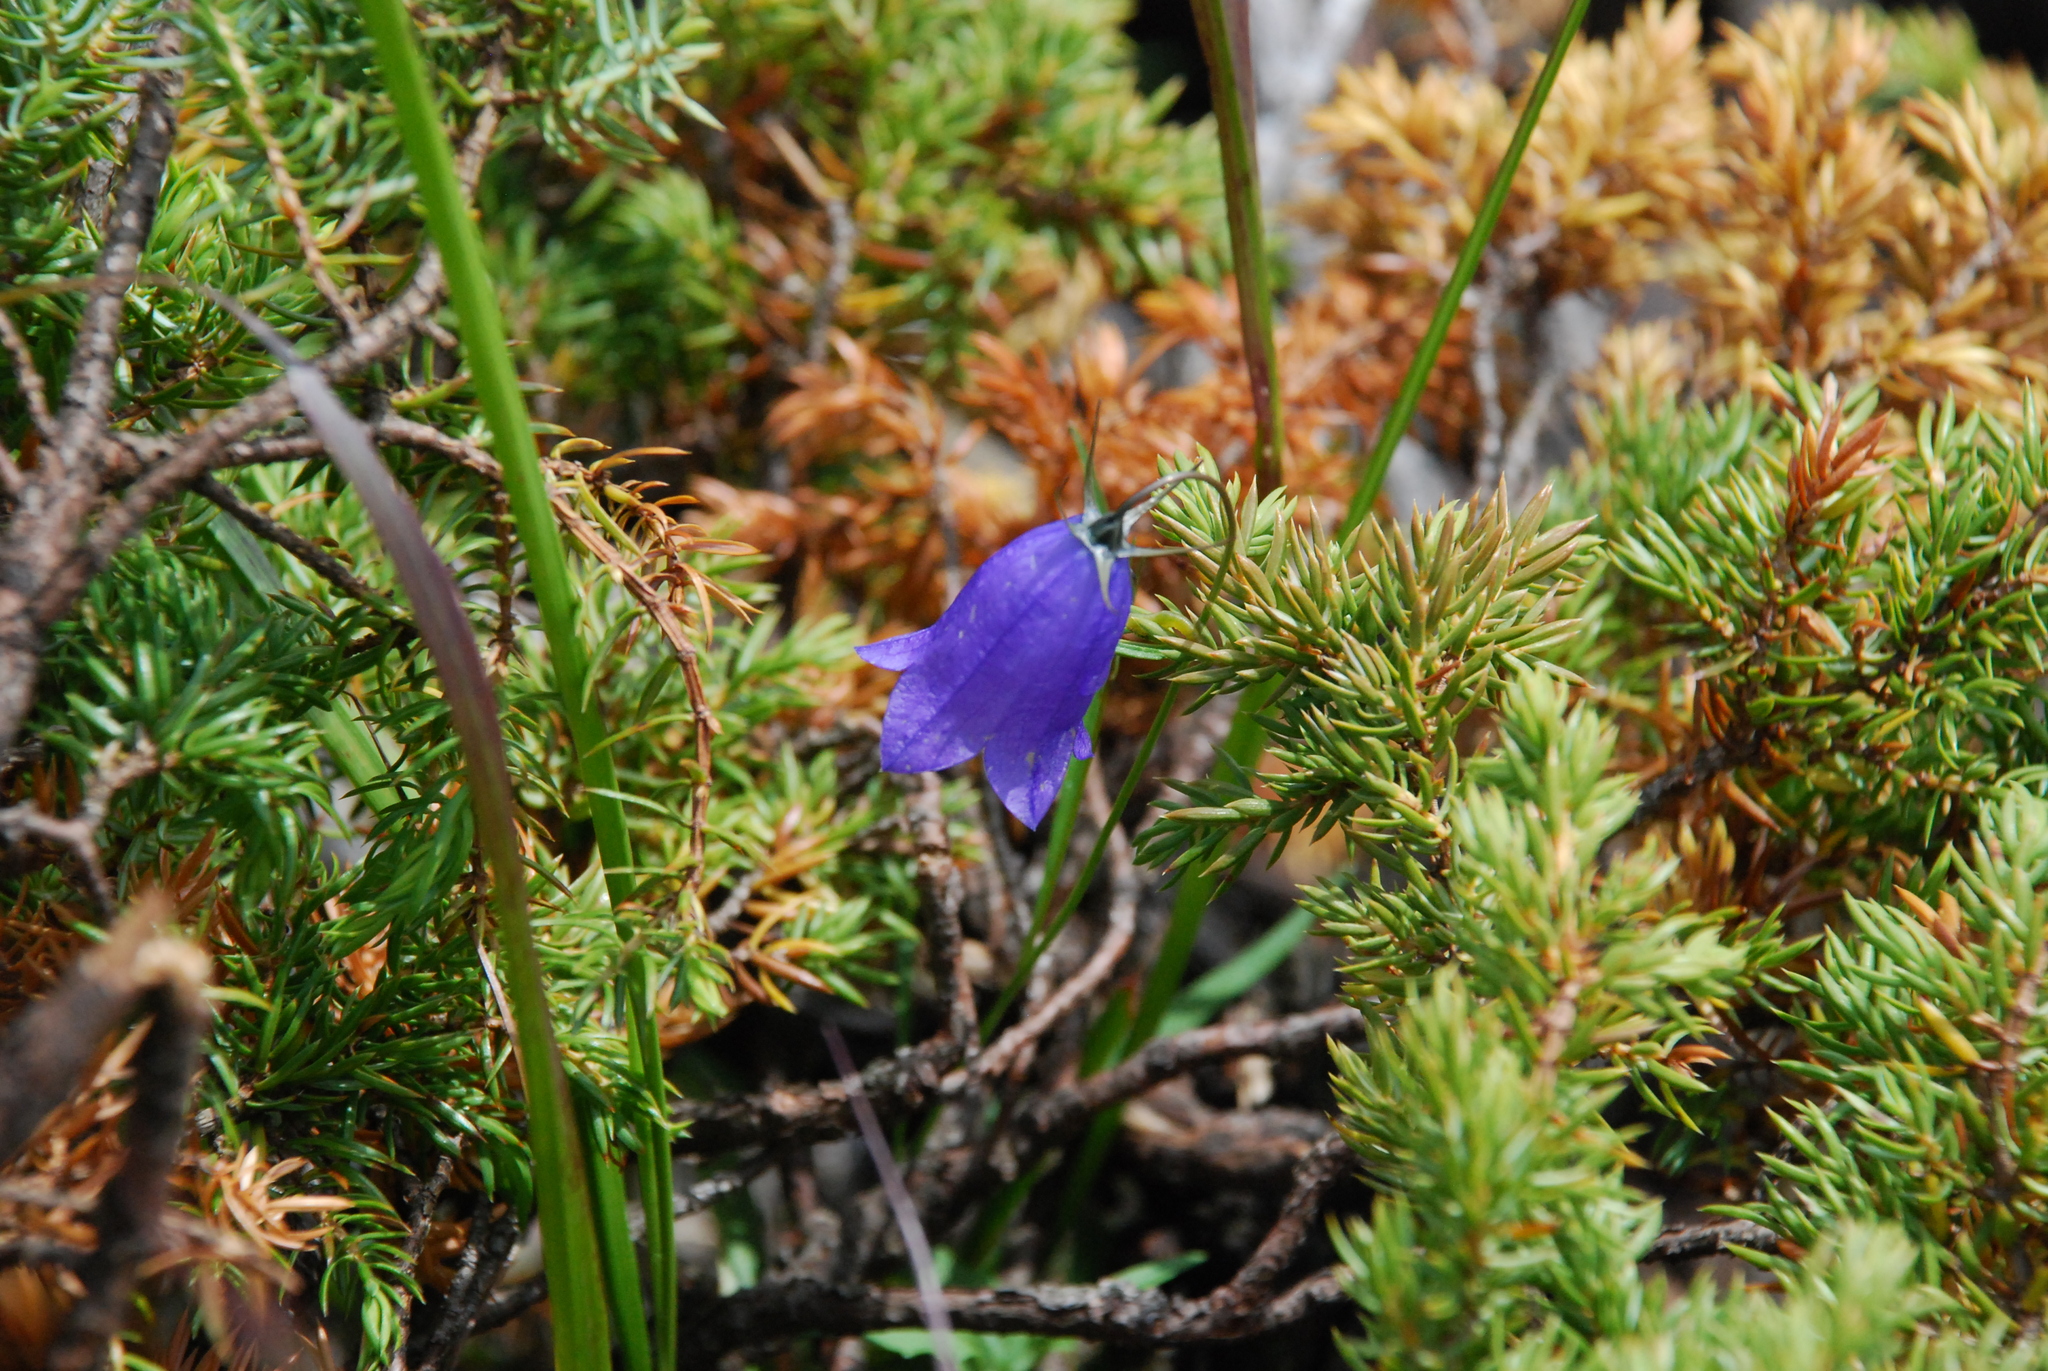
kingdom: Plantae
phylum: Tracheophyta
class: Magnoliopsida
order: Asterales
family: Campanulaceae
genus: Campanula
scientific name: Campanula rotundifolia
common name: Harebell
